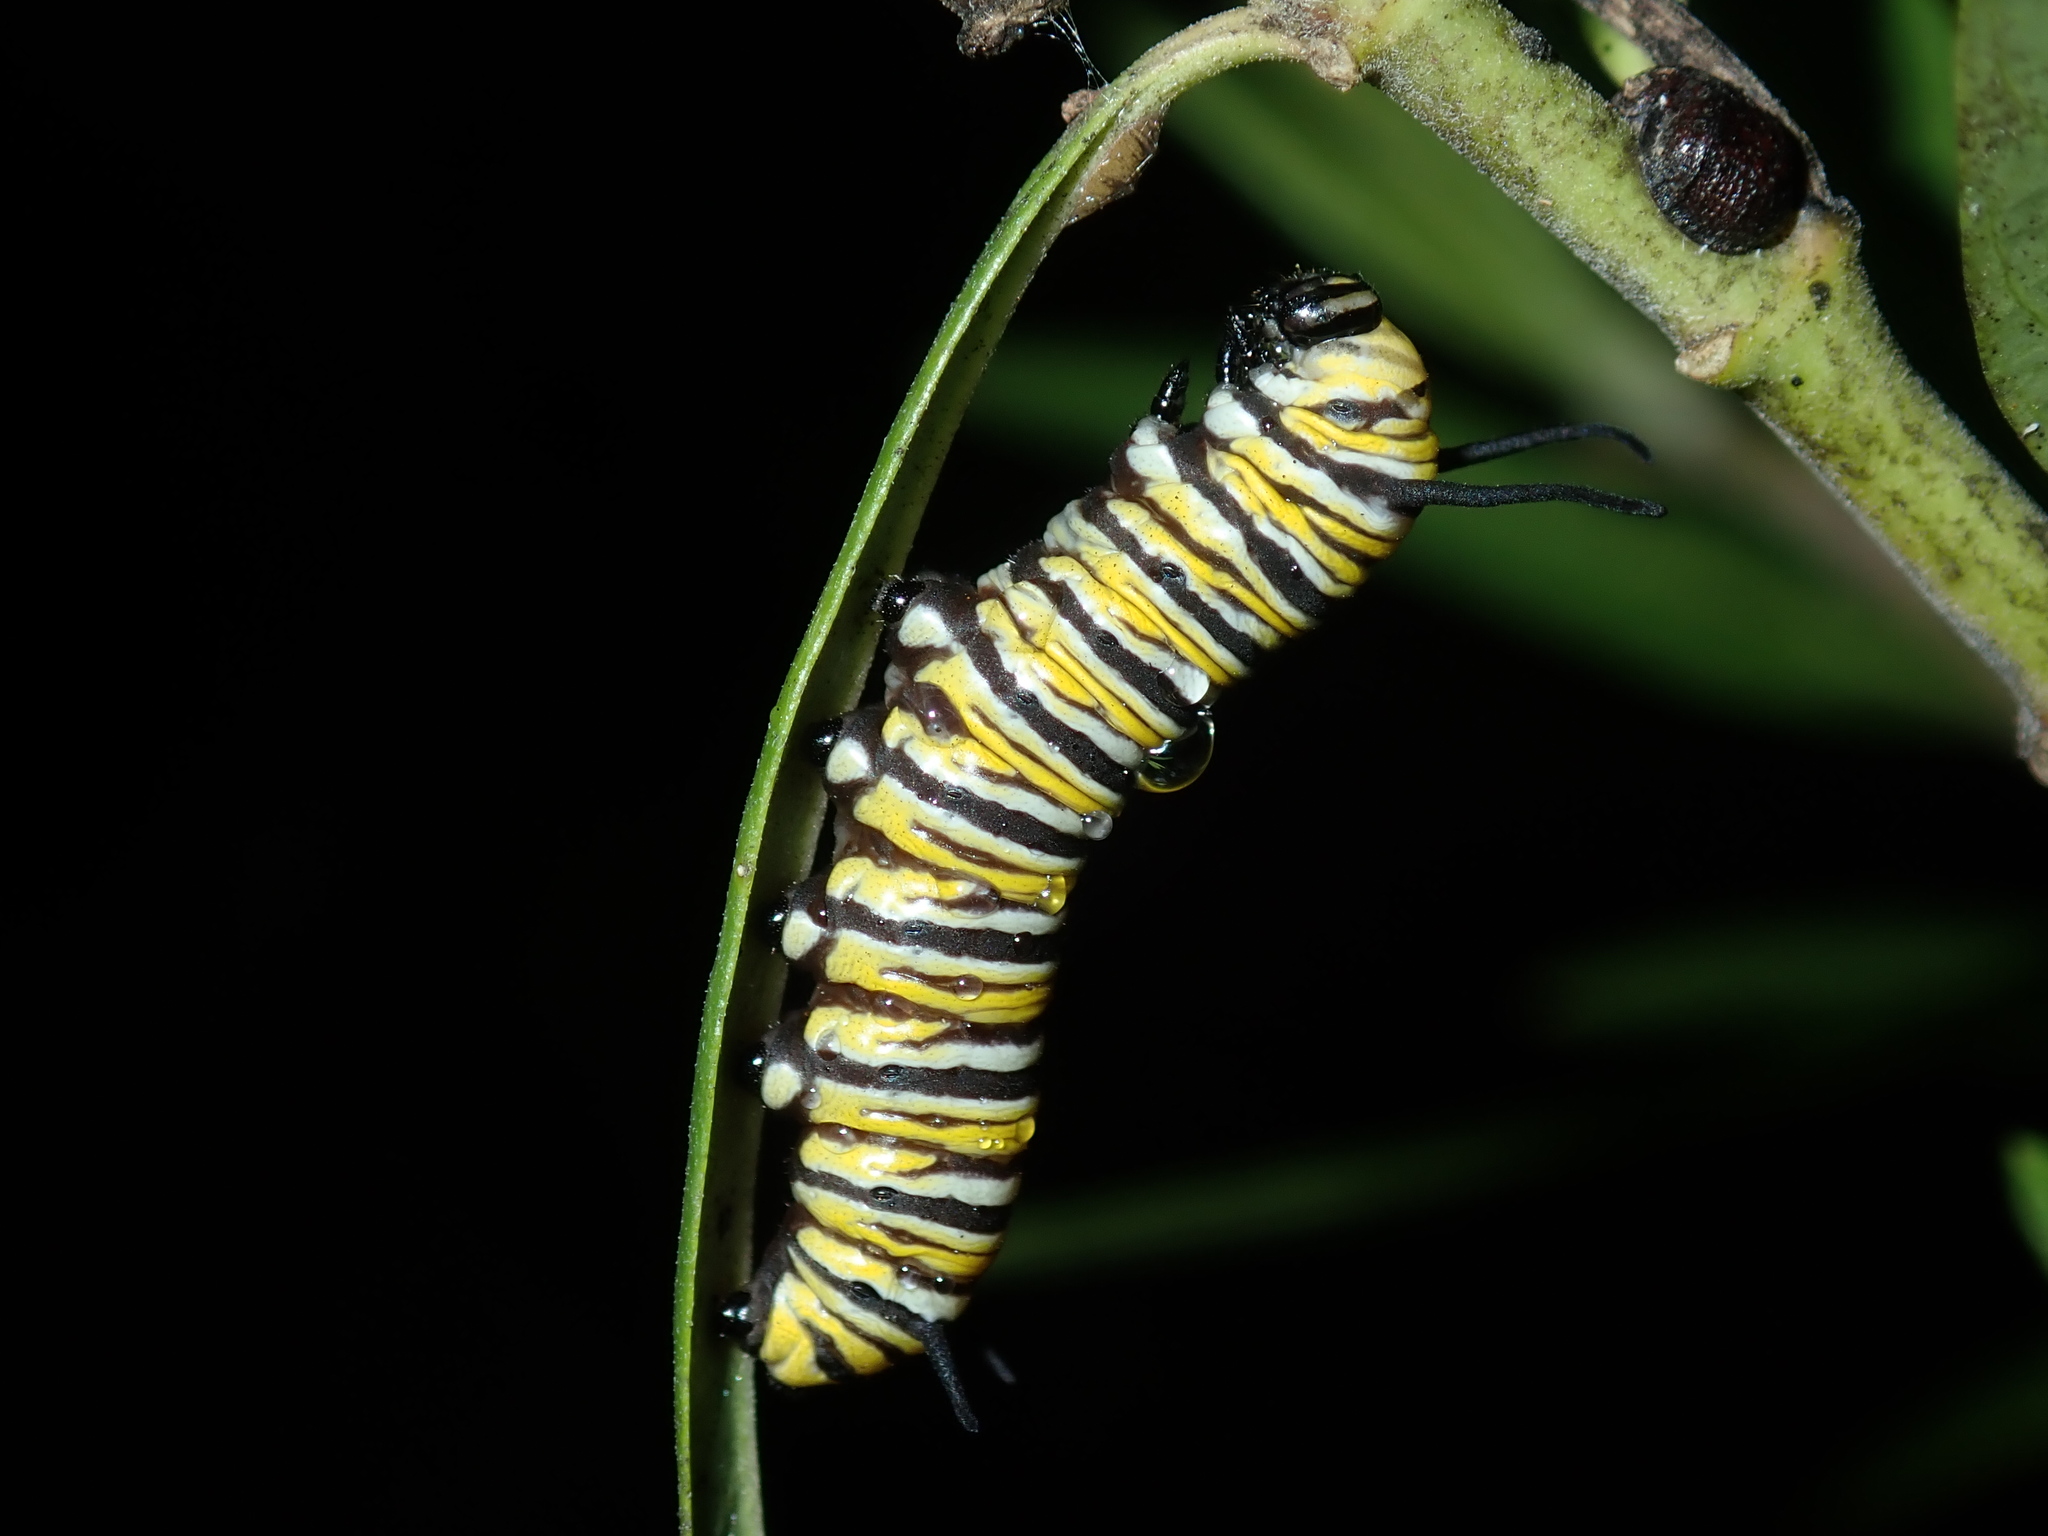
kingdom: Animalia
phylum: Arthropoda
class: Insecta
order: Lepidoptera
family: Nymphalidae
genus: Danaus
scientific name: Danaus plexippus
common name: Monarch
